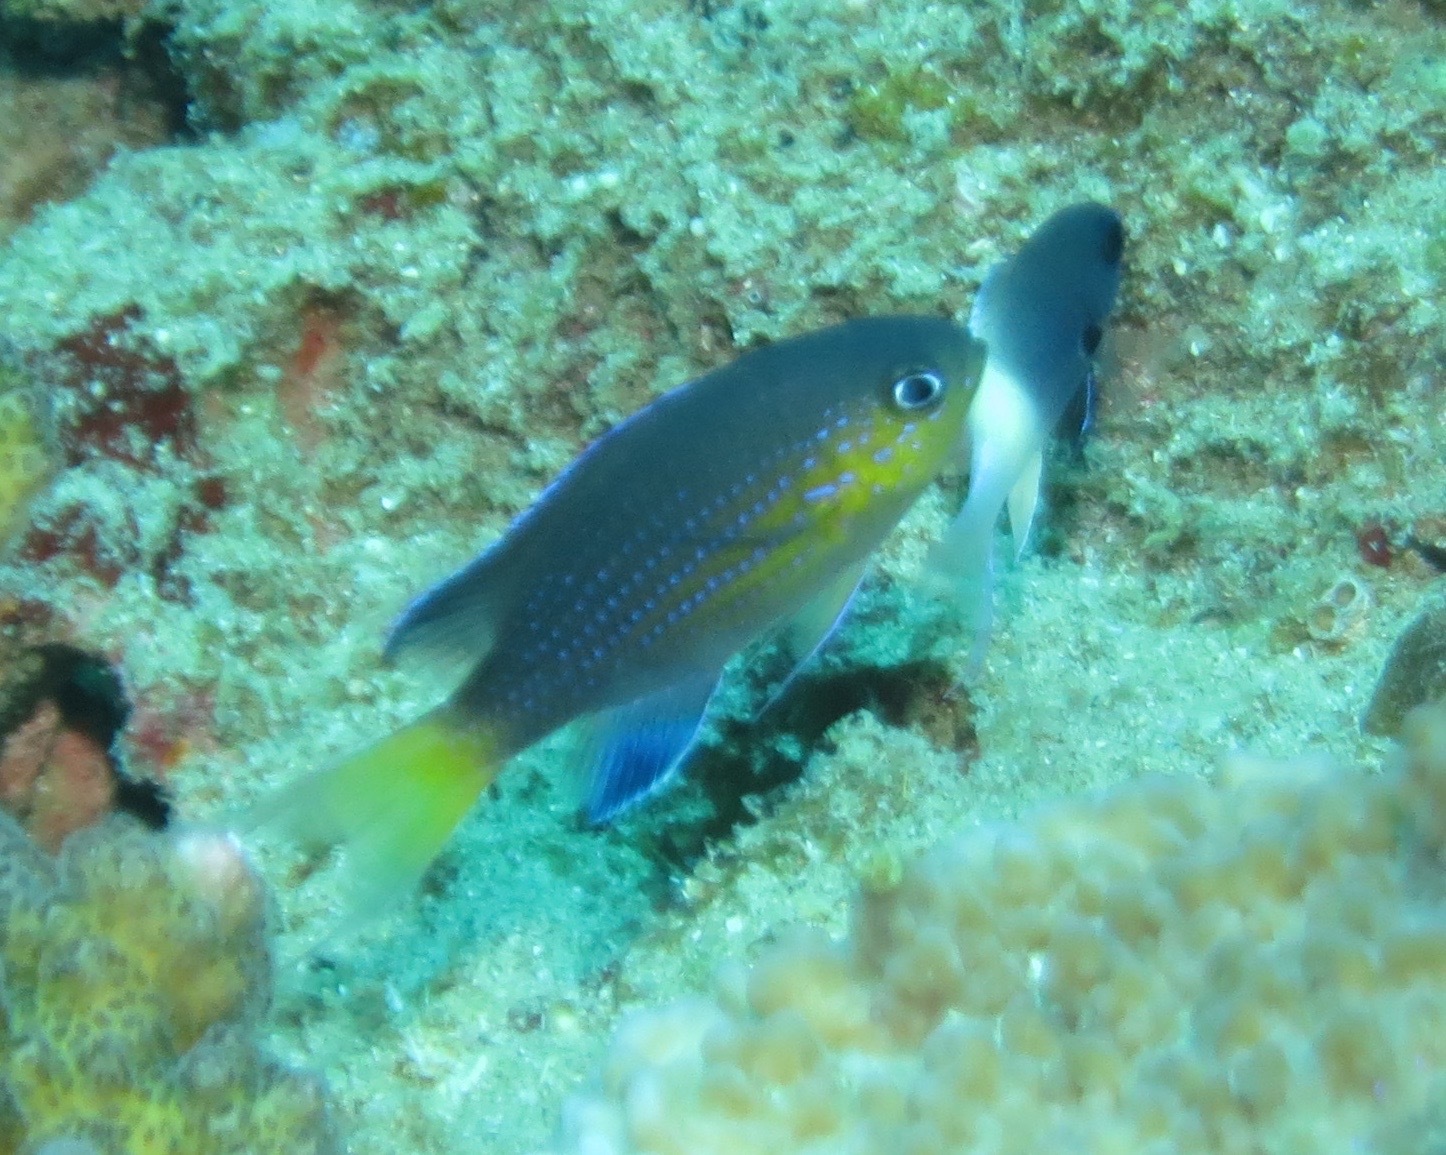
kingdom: Animalia
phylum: Chordata
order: Perciformes
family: Pomacentridae
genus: Chromis
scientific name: Chromis nigrura
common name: Blacktail chromis
